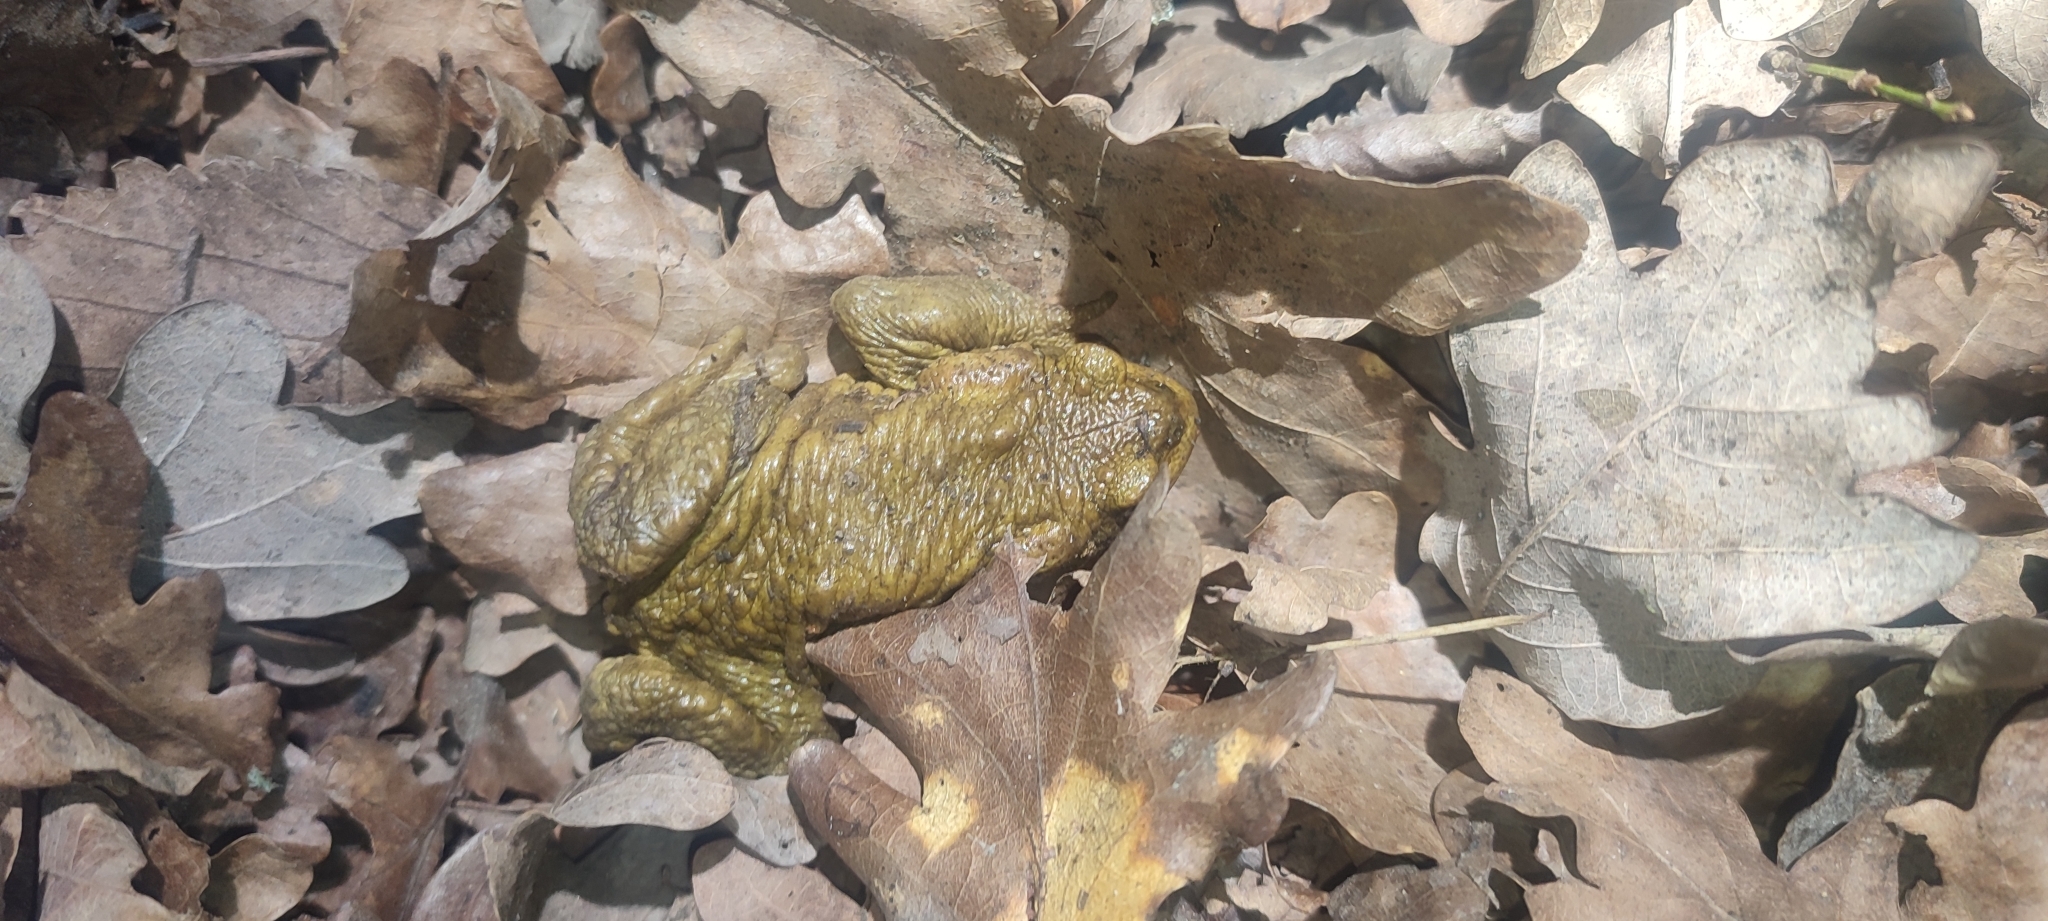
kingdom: Animalia
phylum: Chordata
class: Amphibia
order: Anura
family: Bufonidae
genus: Bufo
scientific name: Bufo spinosus
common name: Western common toad
